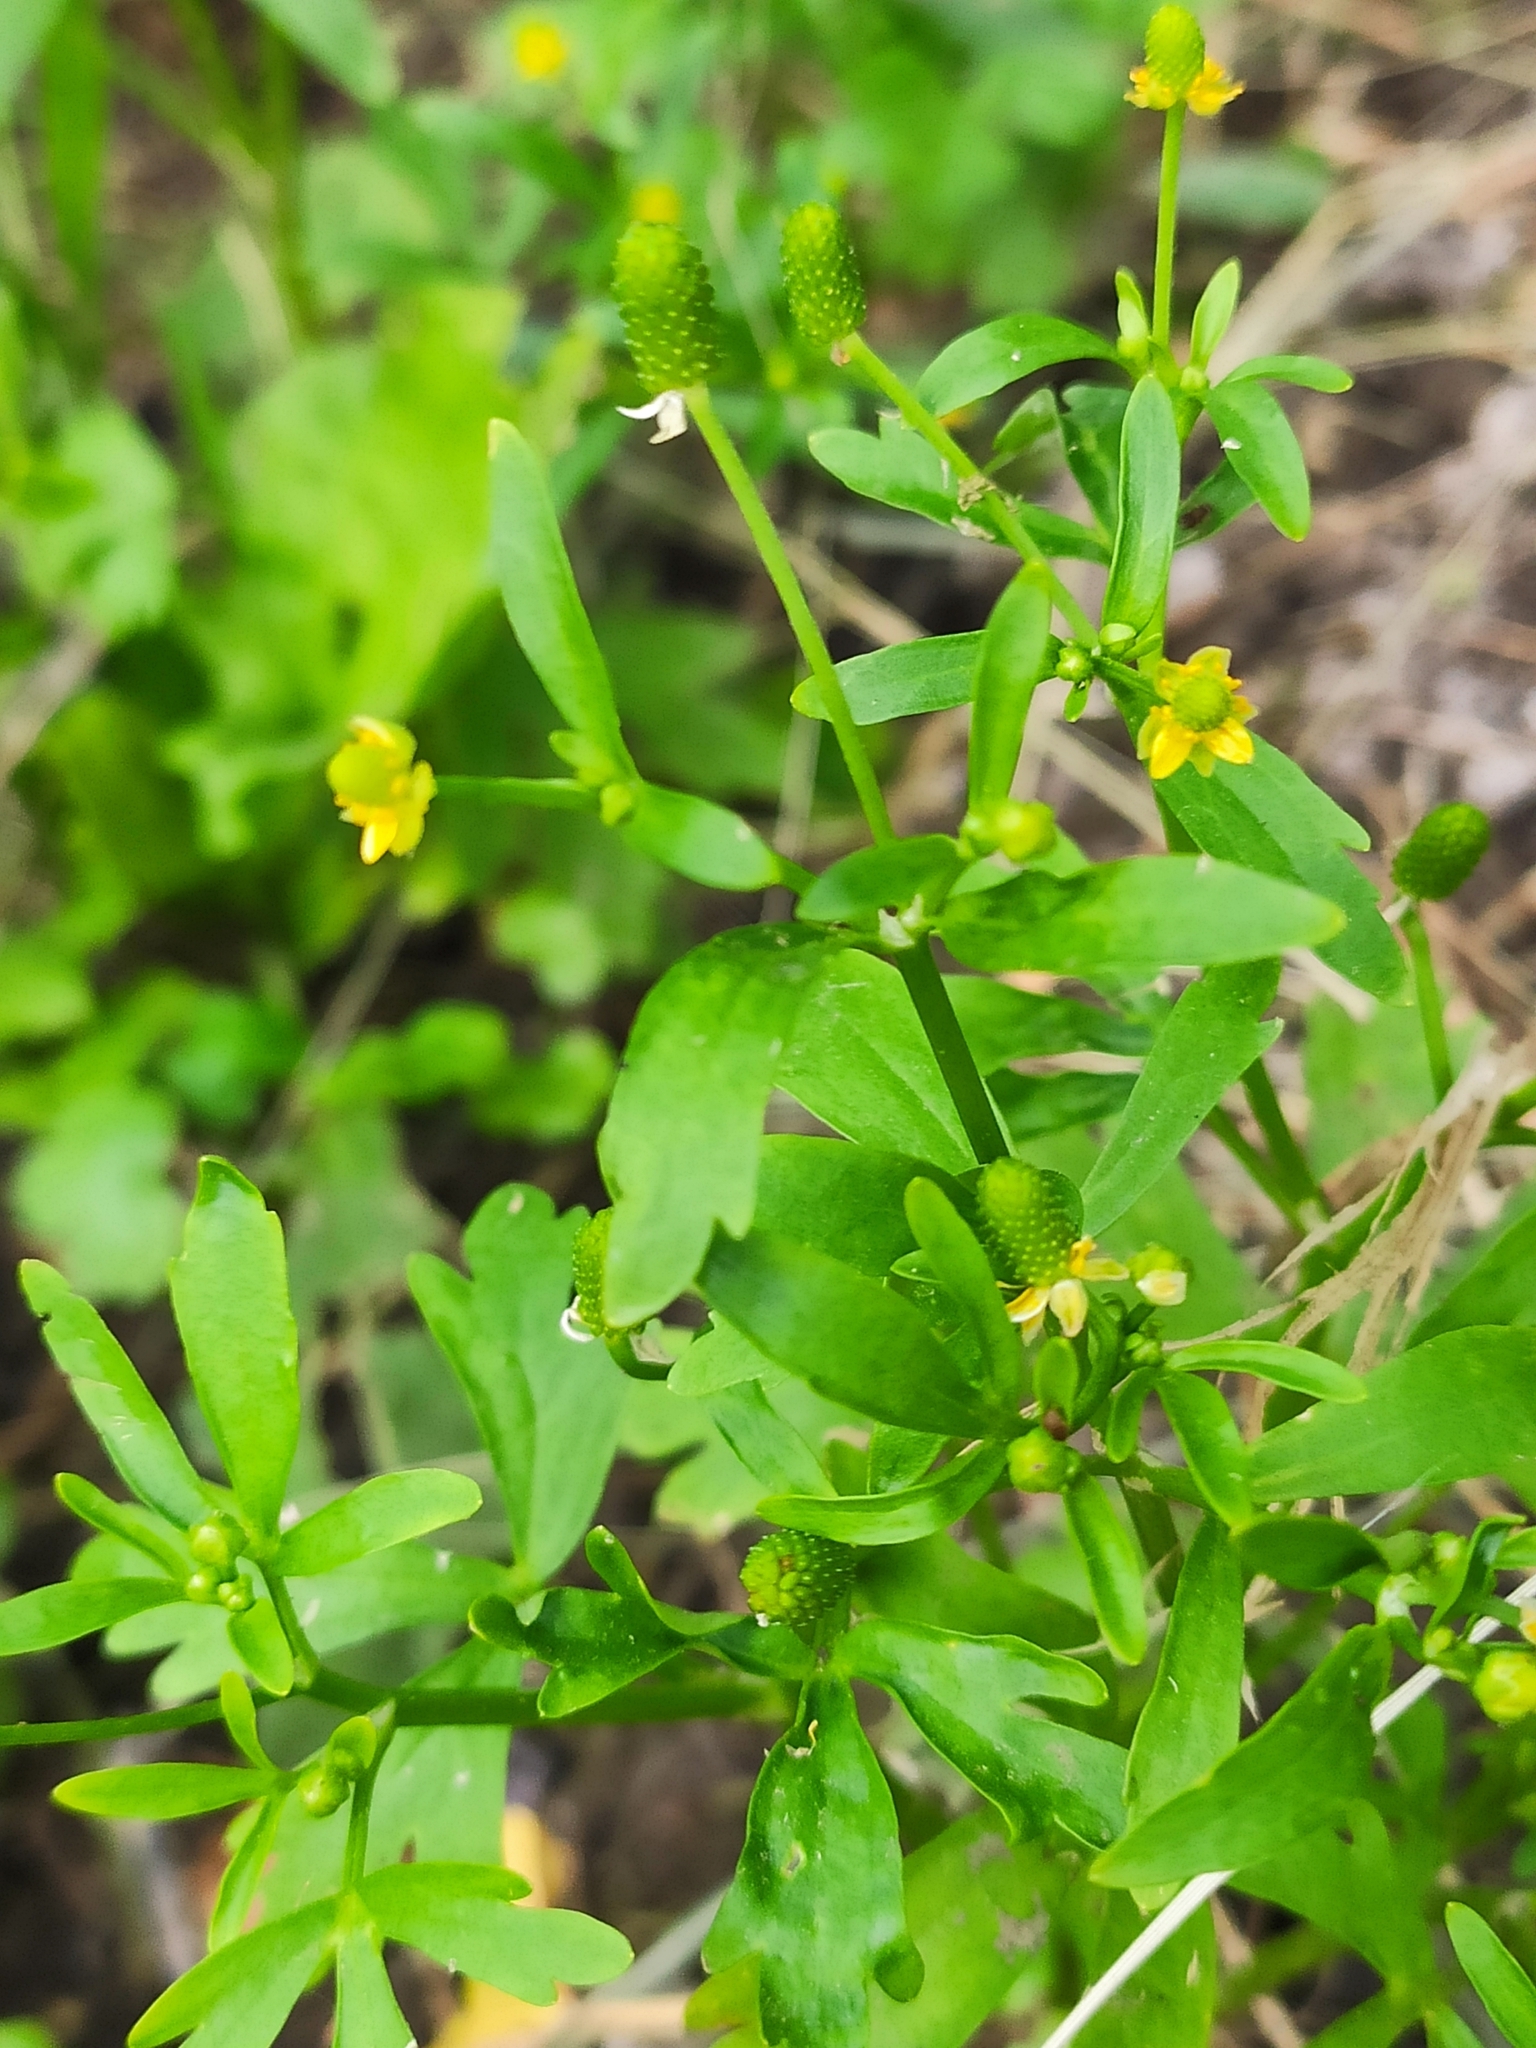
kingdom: Plantae
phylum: Tracheophyta
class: Magnoliopsida
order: Ranunculales
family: Ranunculaceae
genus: Ranunculus
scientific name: Ranunculus sceleratus
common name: Celery-leaved buttercup
